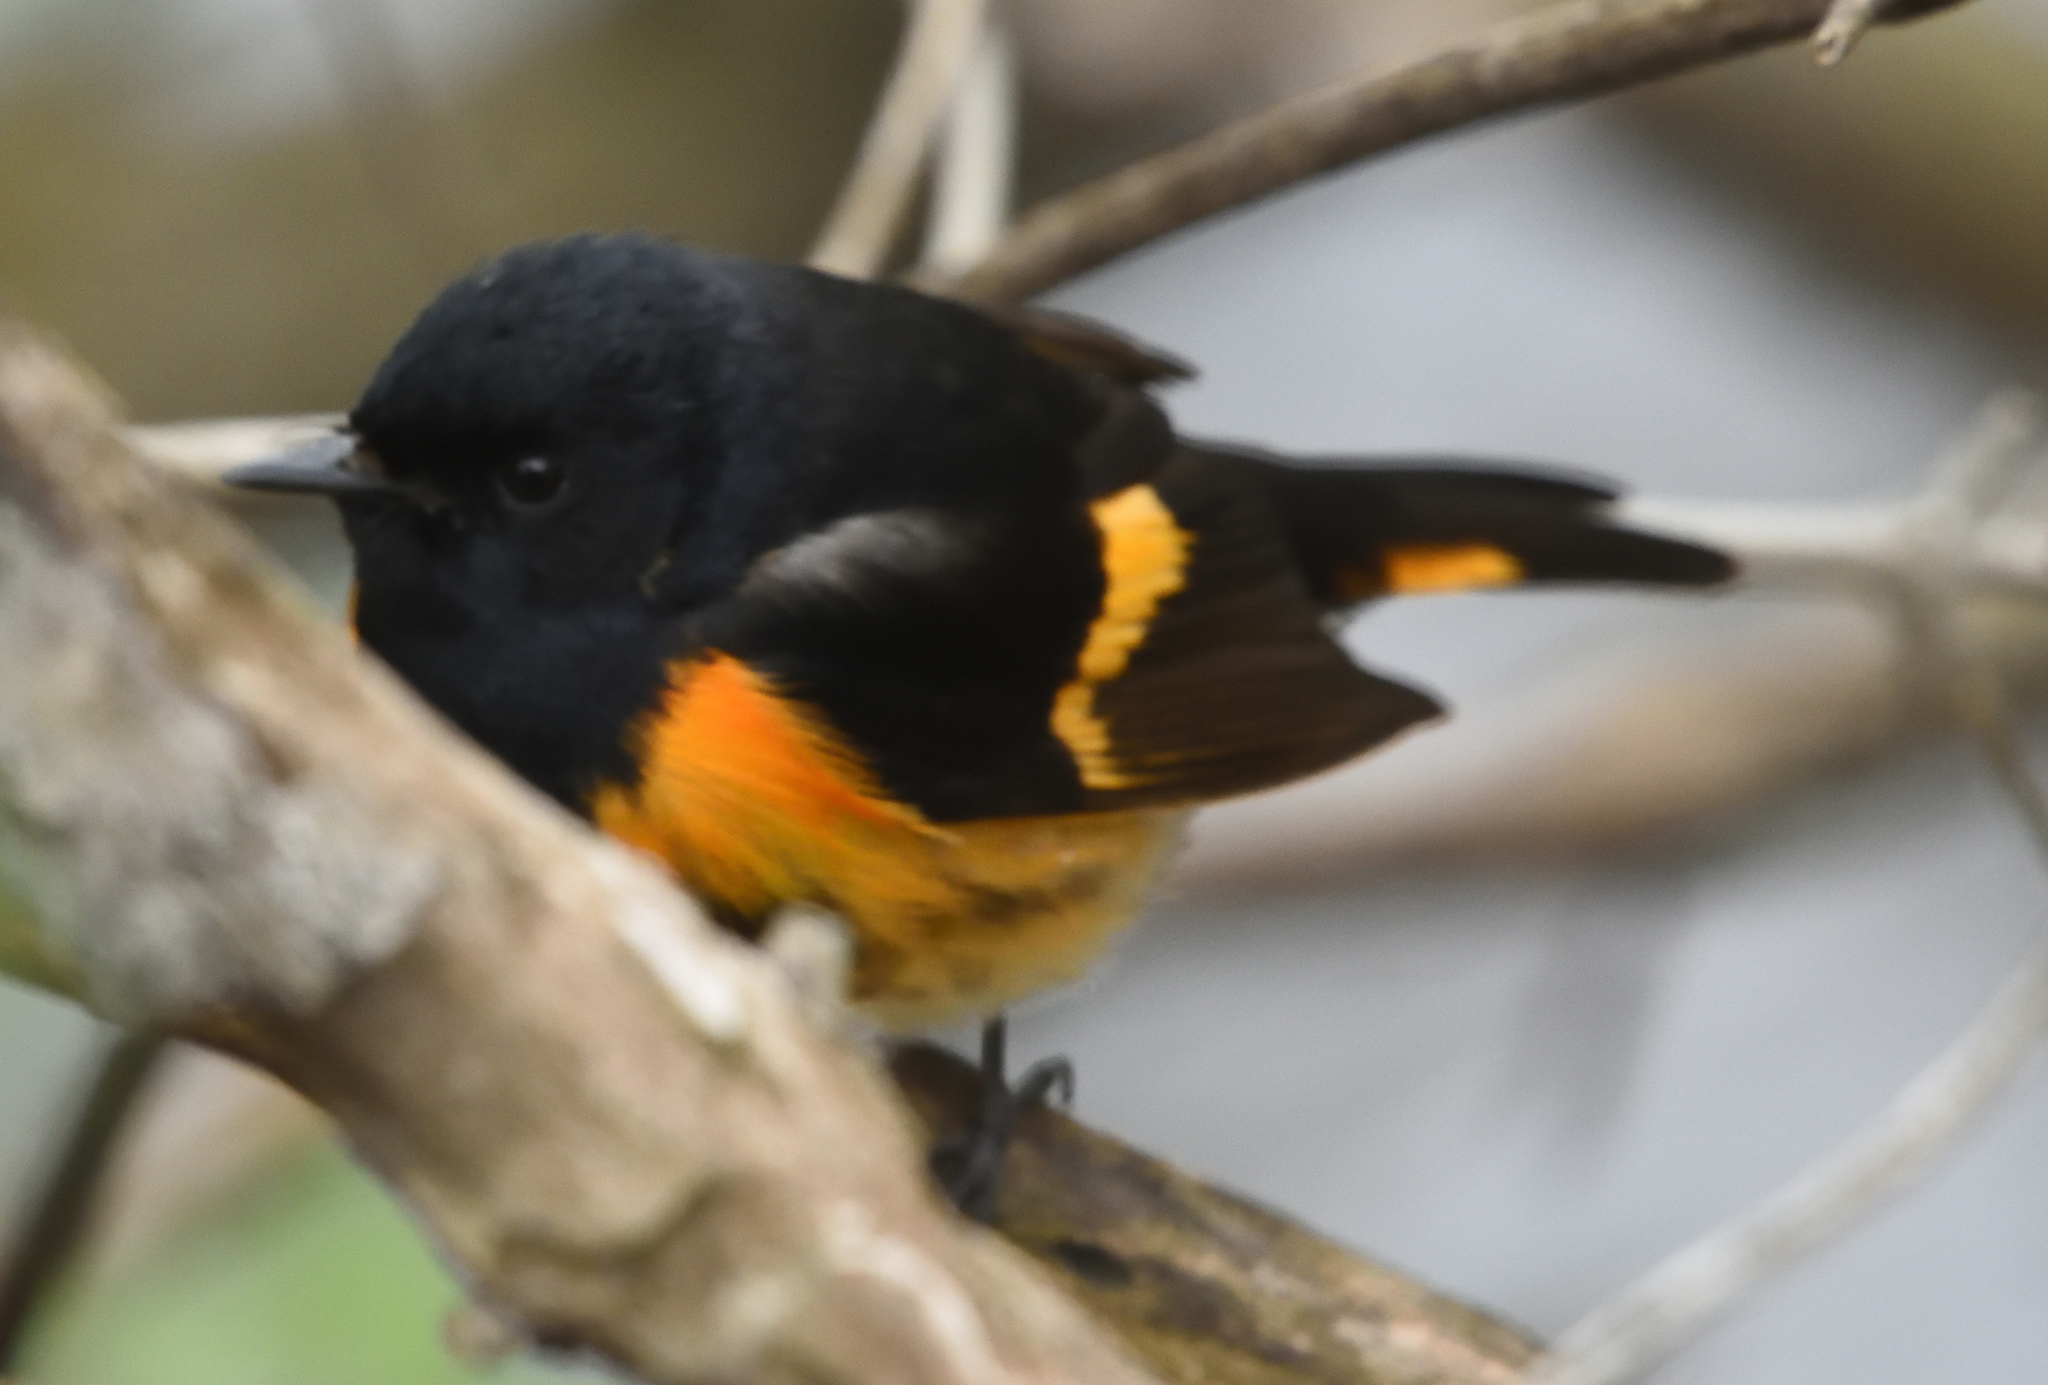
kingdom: Animalia
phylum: Chordata
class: Aves
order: Passeriformes
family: Parulidae
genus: Setophaga
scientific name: Setophaga ruticilla
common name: American redstart
